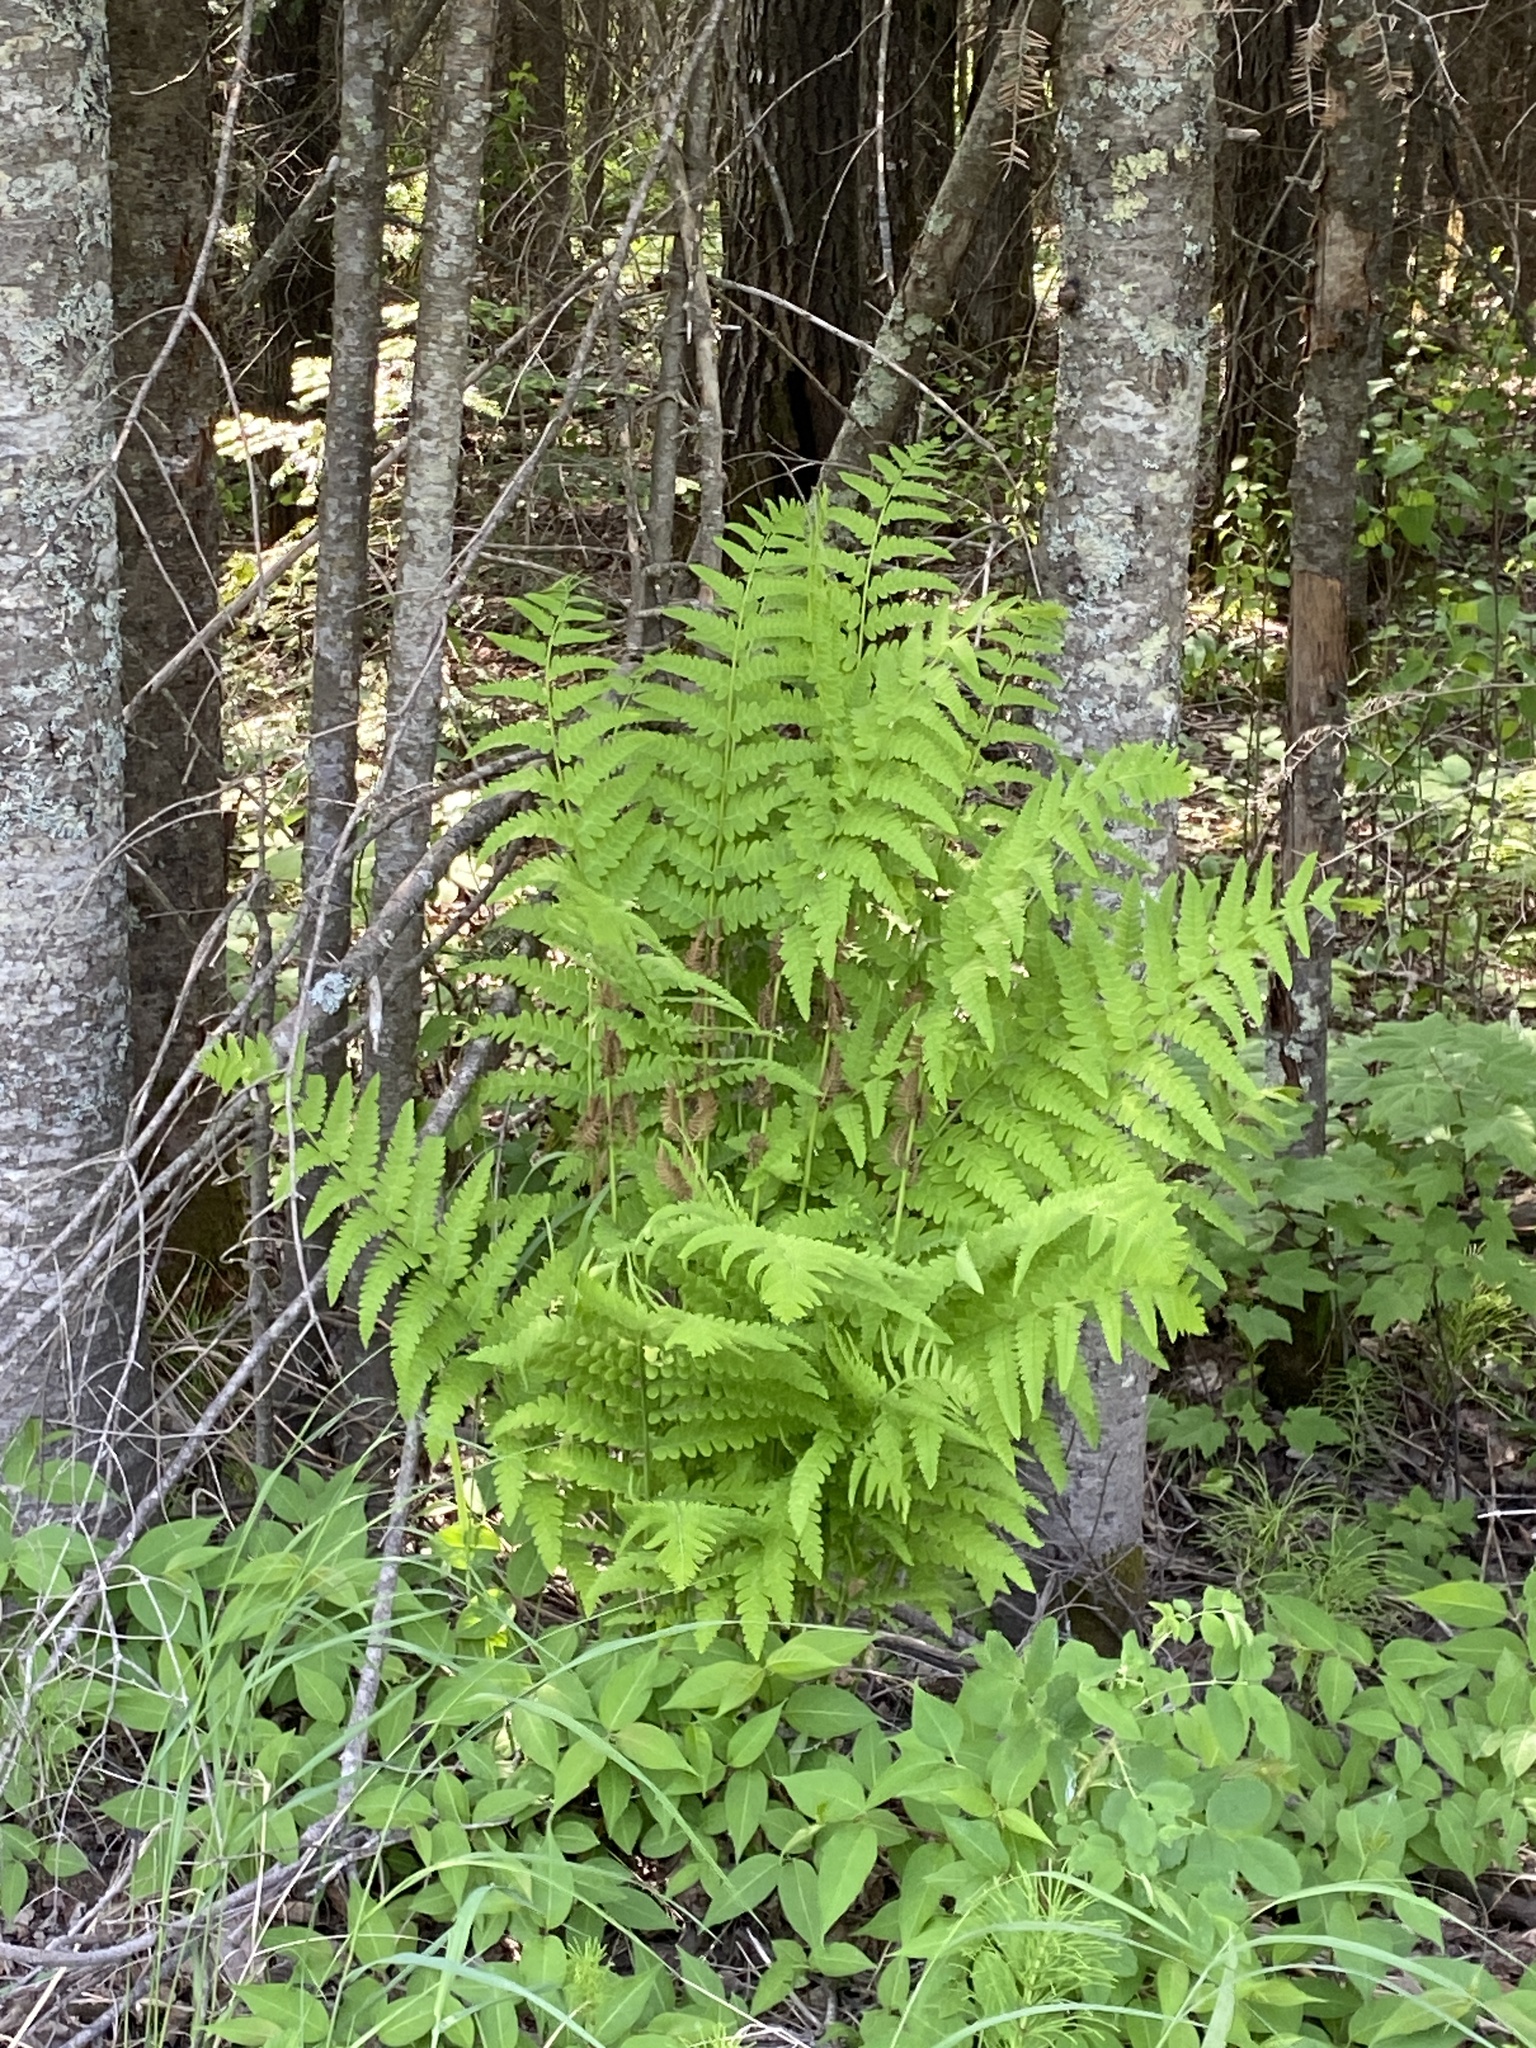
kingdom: Plantae
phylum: Tracheophyta
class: Polypodiopsida
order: Osmundales
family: Osmundaceae
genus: Claytosmunda
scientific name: Claytosmunda claytoniana
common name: Clayton's fern
